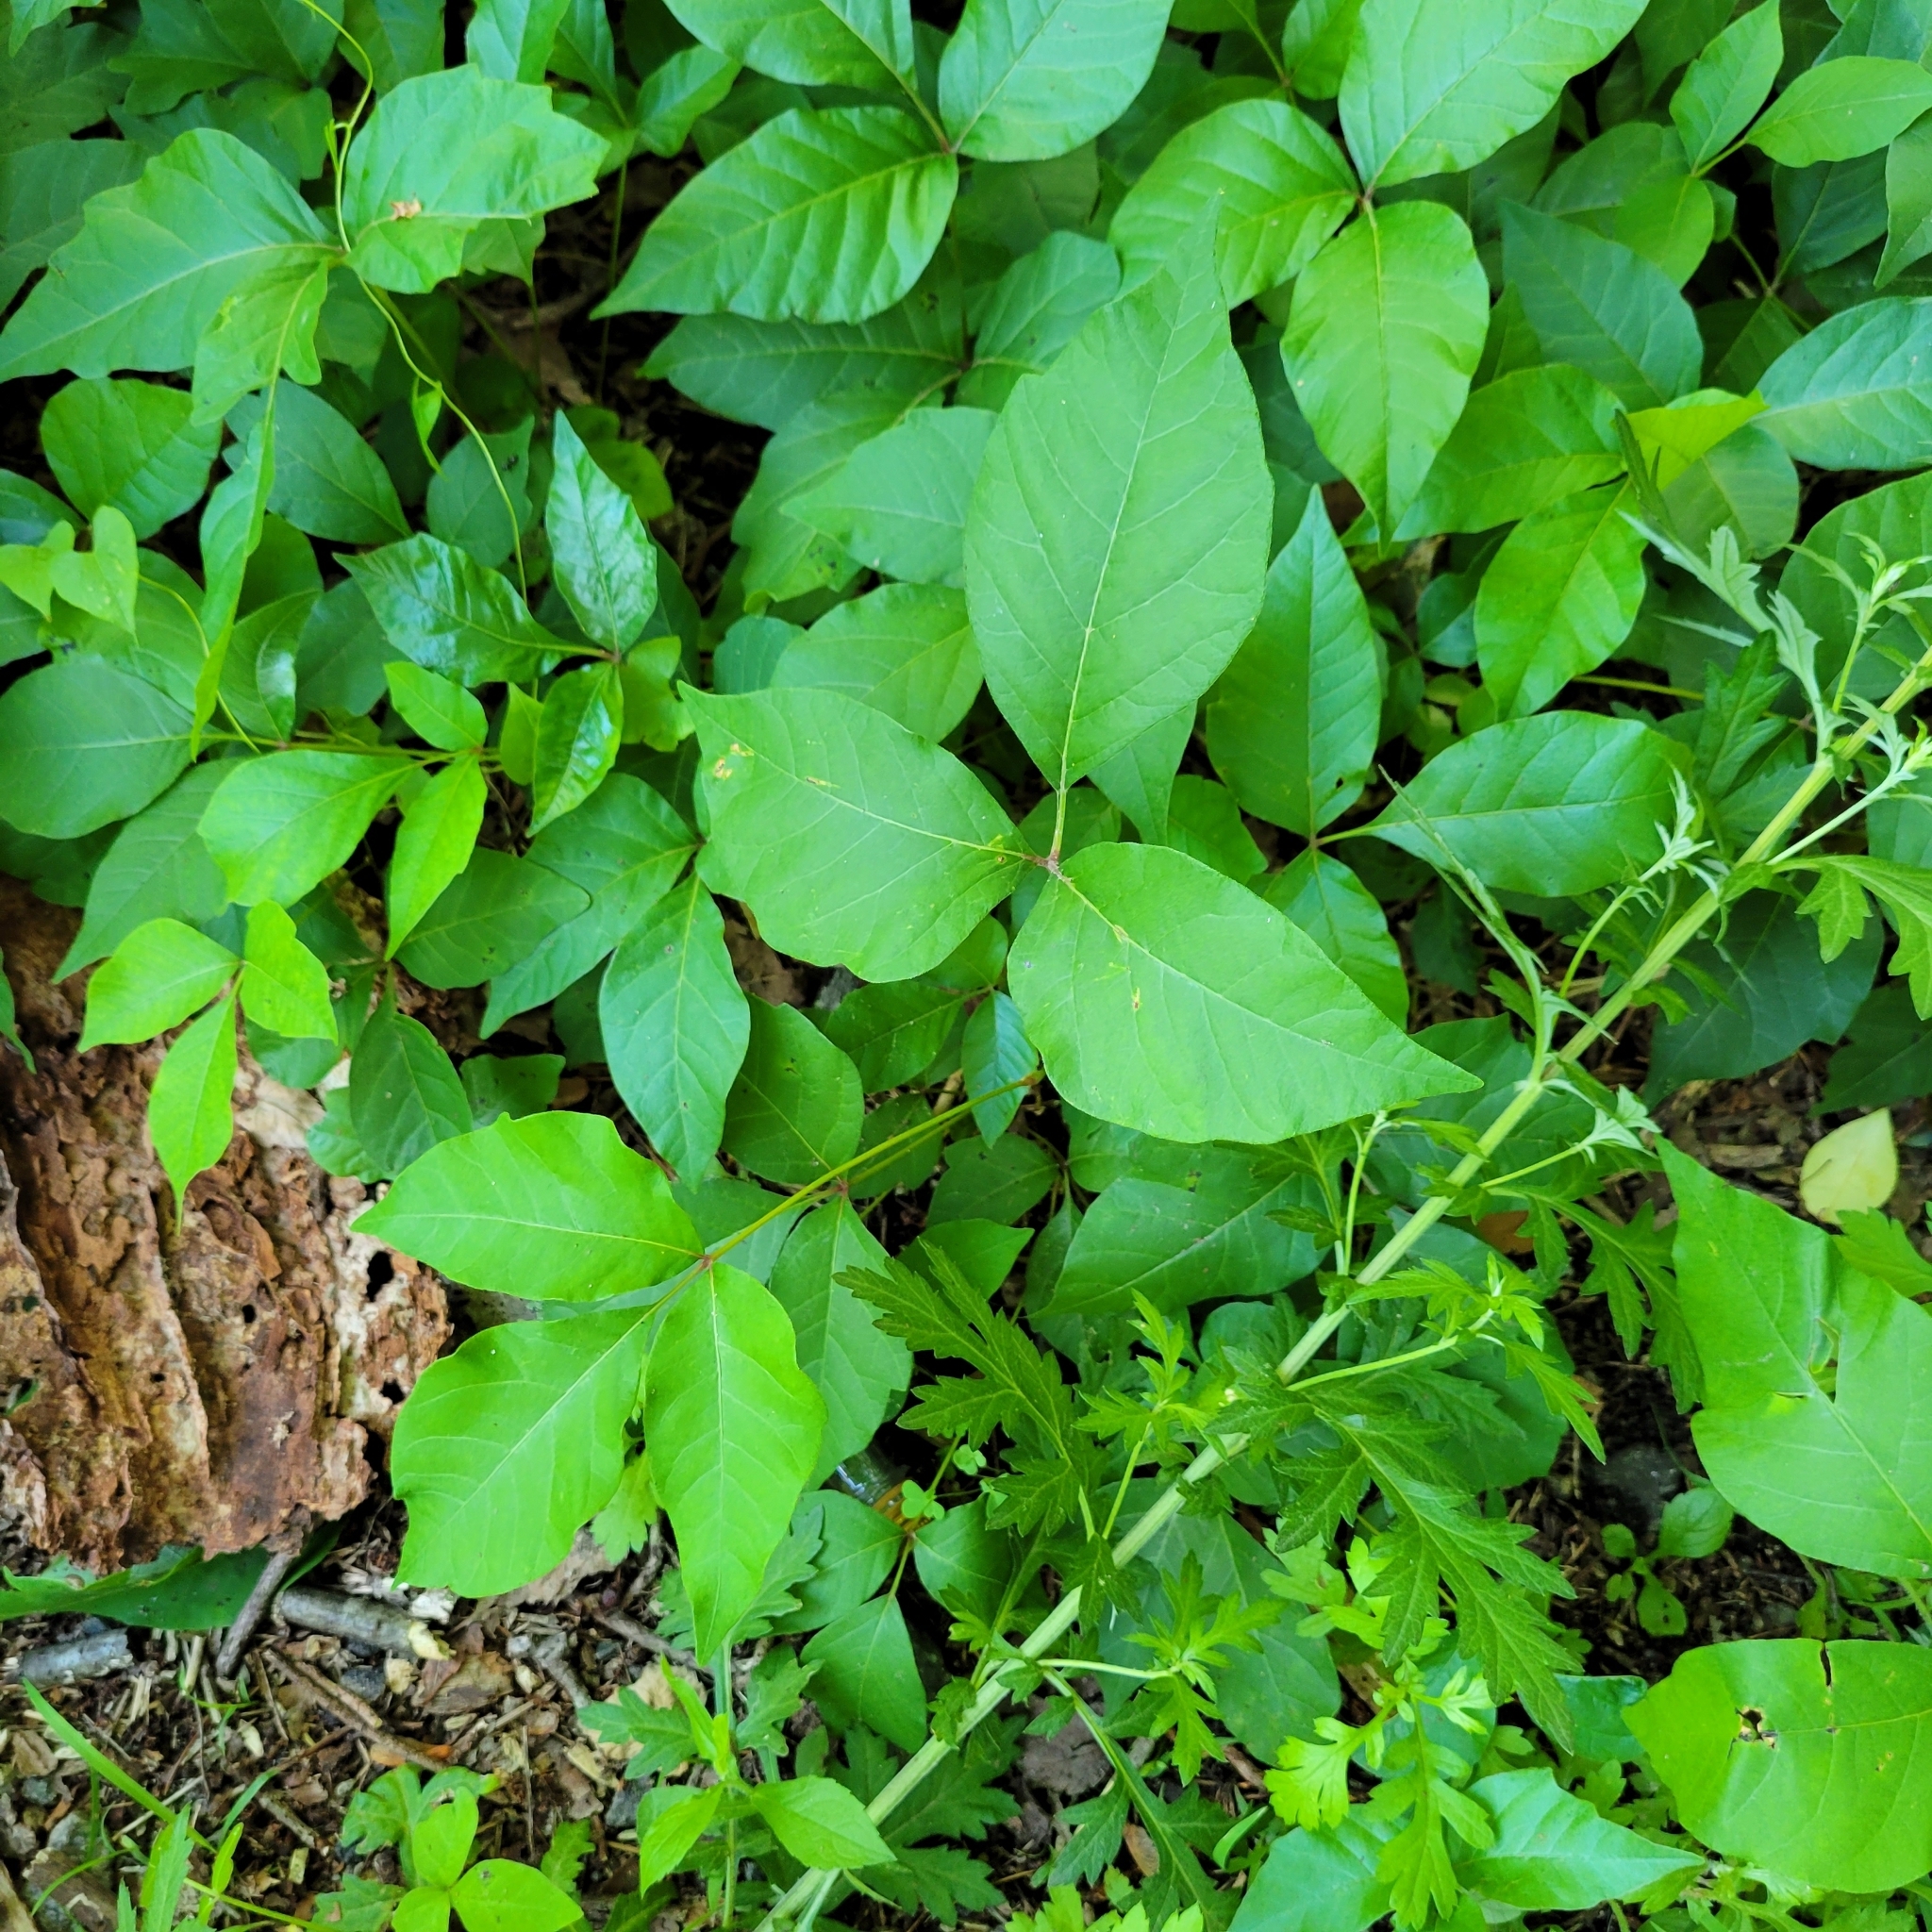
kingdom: Plantae
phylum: Tracheophyta
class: Magnoliopsida
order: Sapindales
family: Anacardiaceae
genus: Toxicodendron
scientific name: Toxicodendron radicans
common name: Poison ivy
